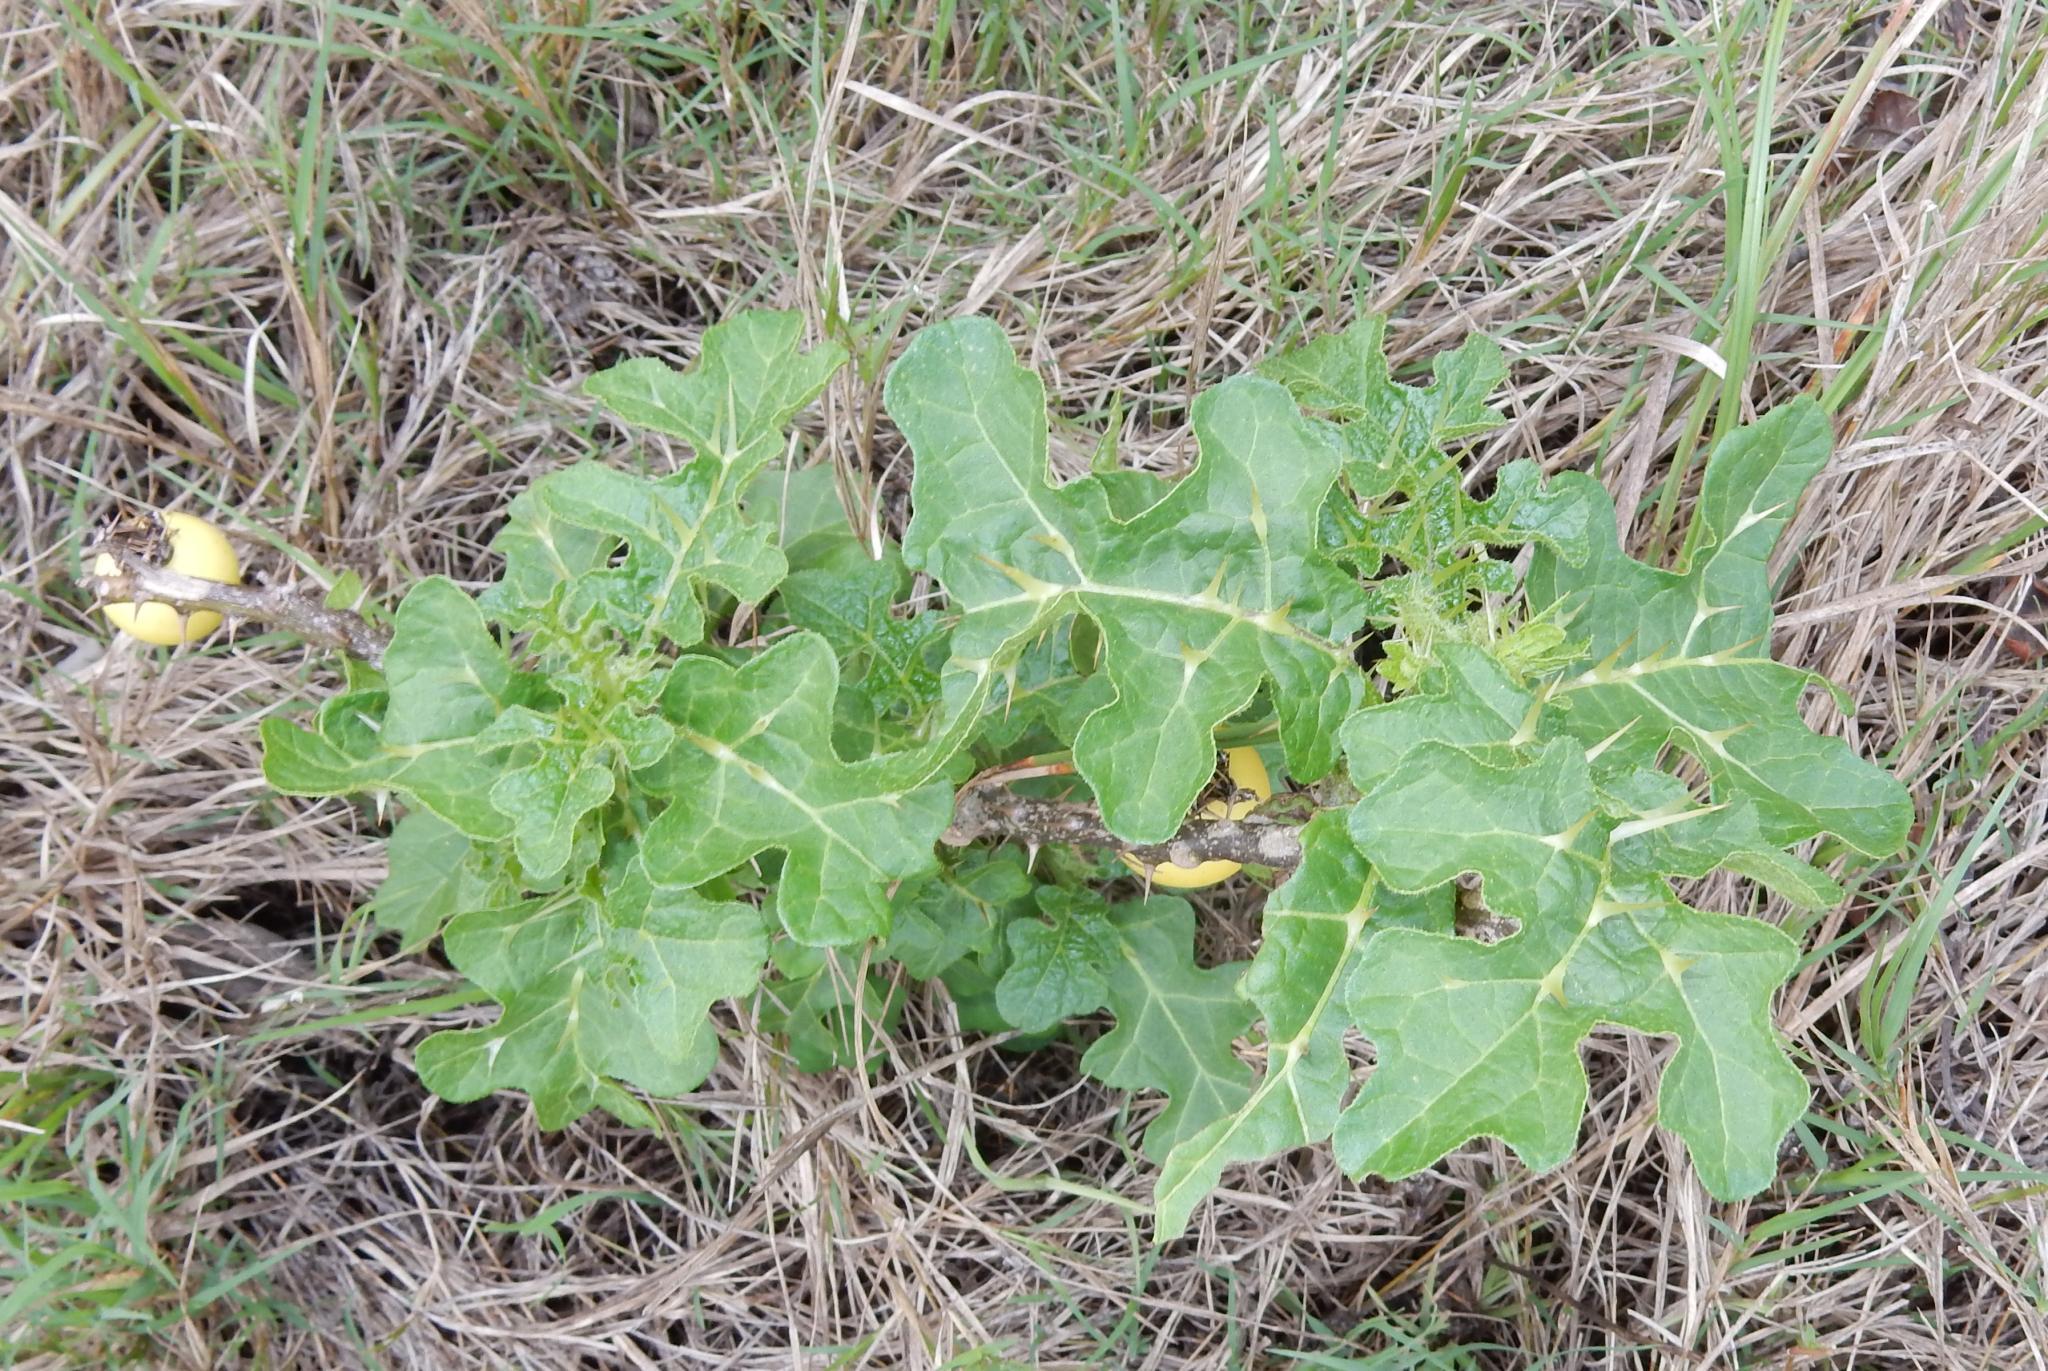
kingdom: Plantae
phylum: Tracheophyta
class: Magnoliopsida
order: Solanales
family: Solanaceae
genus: Solanum
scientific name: Solanum linnaeanum
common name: Nightshade
